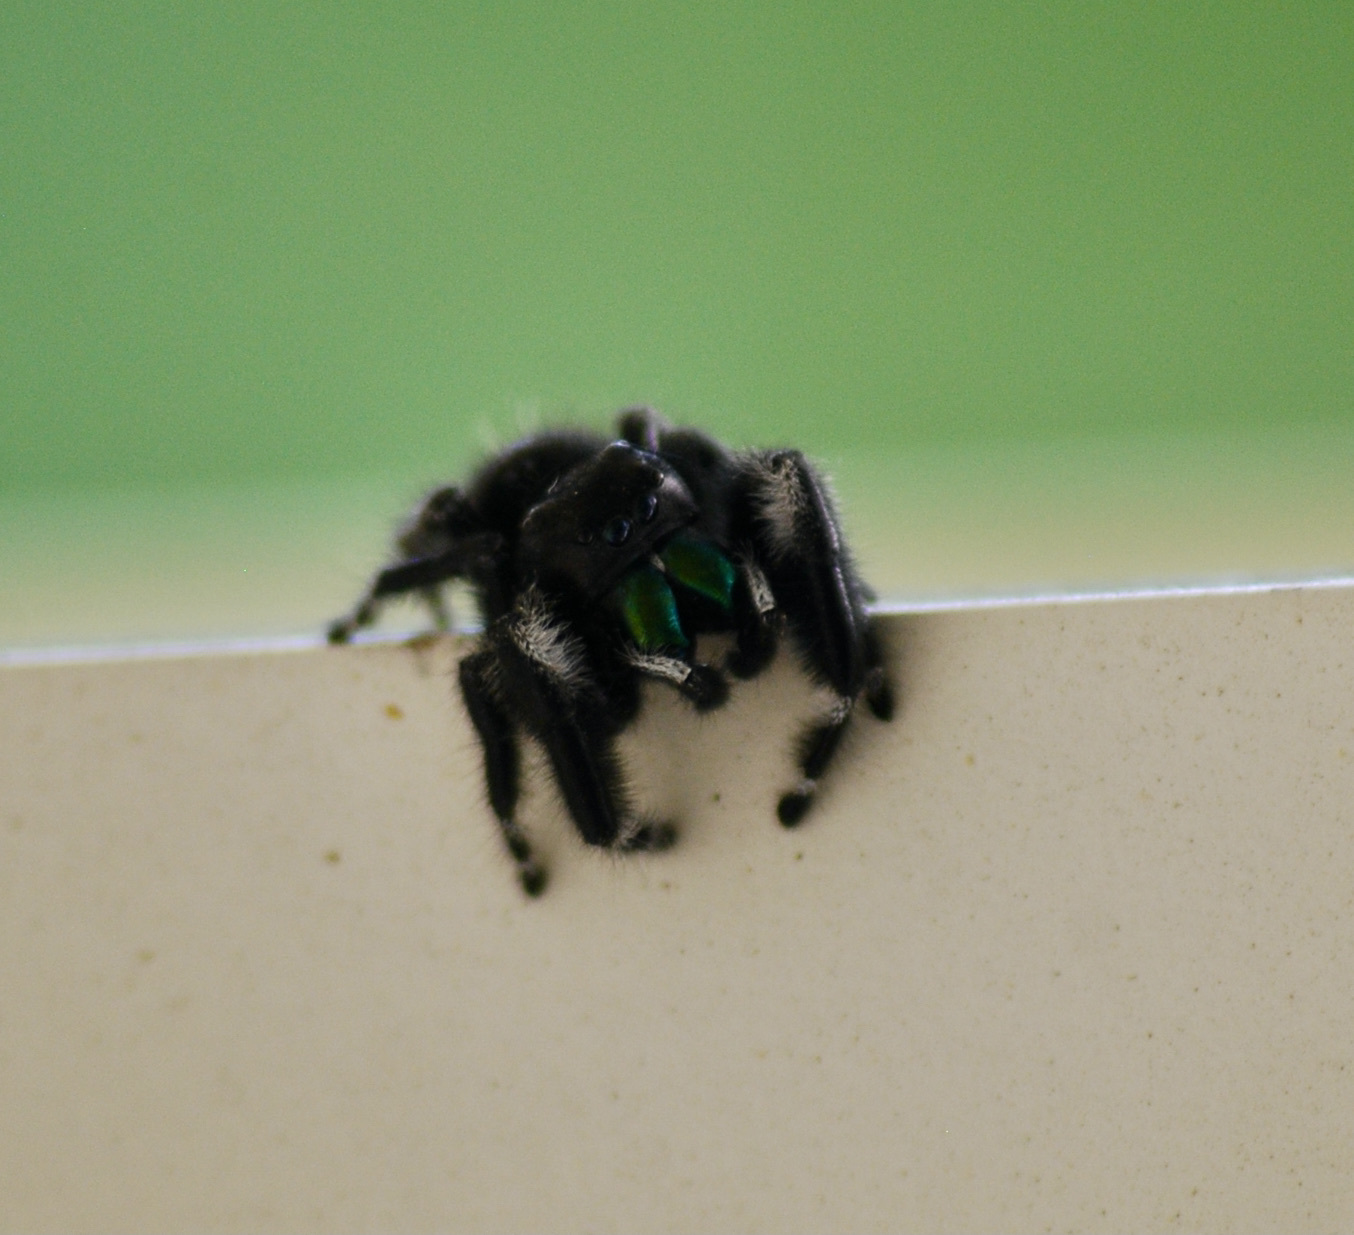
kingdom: Animalia
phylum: Arthropoda
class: Arachnida
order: Araneae
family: Salticidae
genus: Phidippus
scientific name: Phidippus audax
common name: Bold jumper
